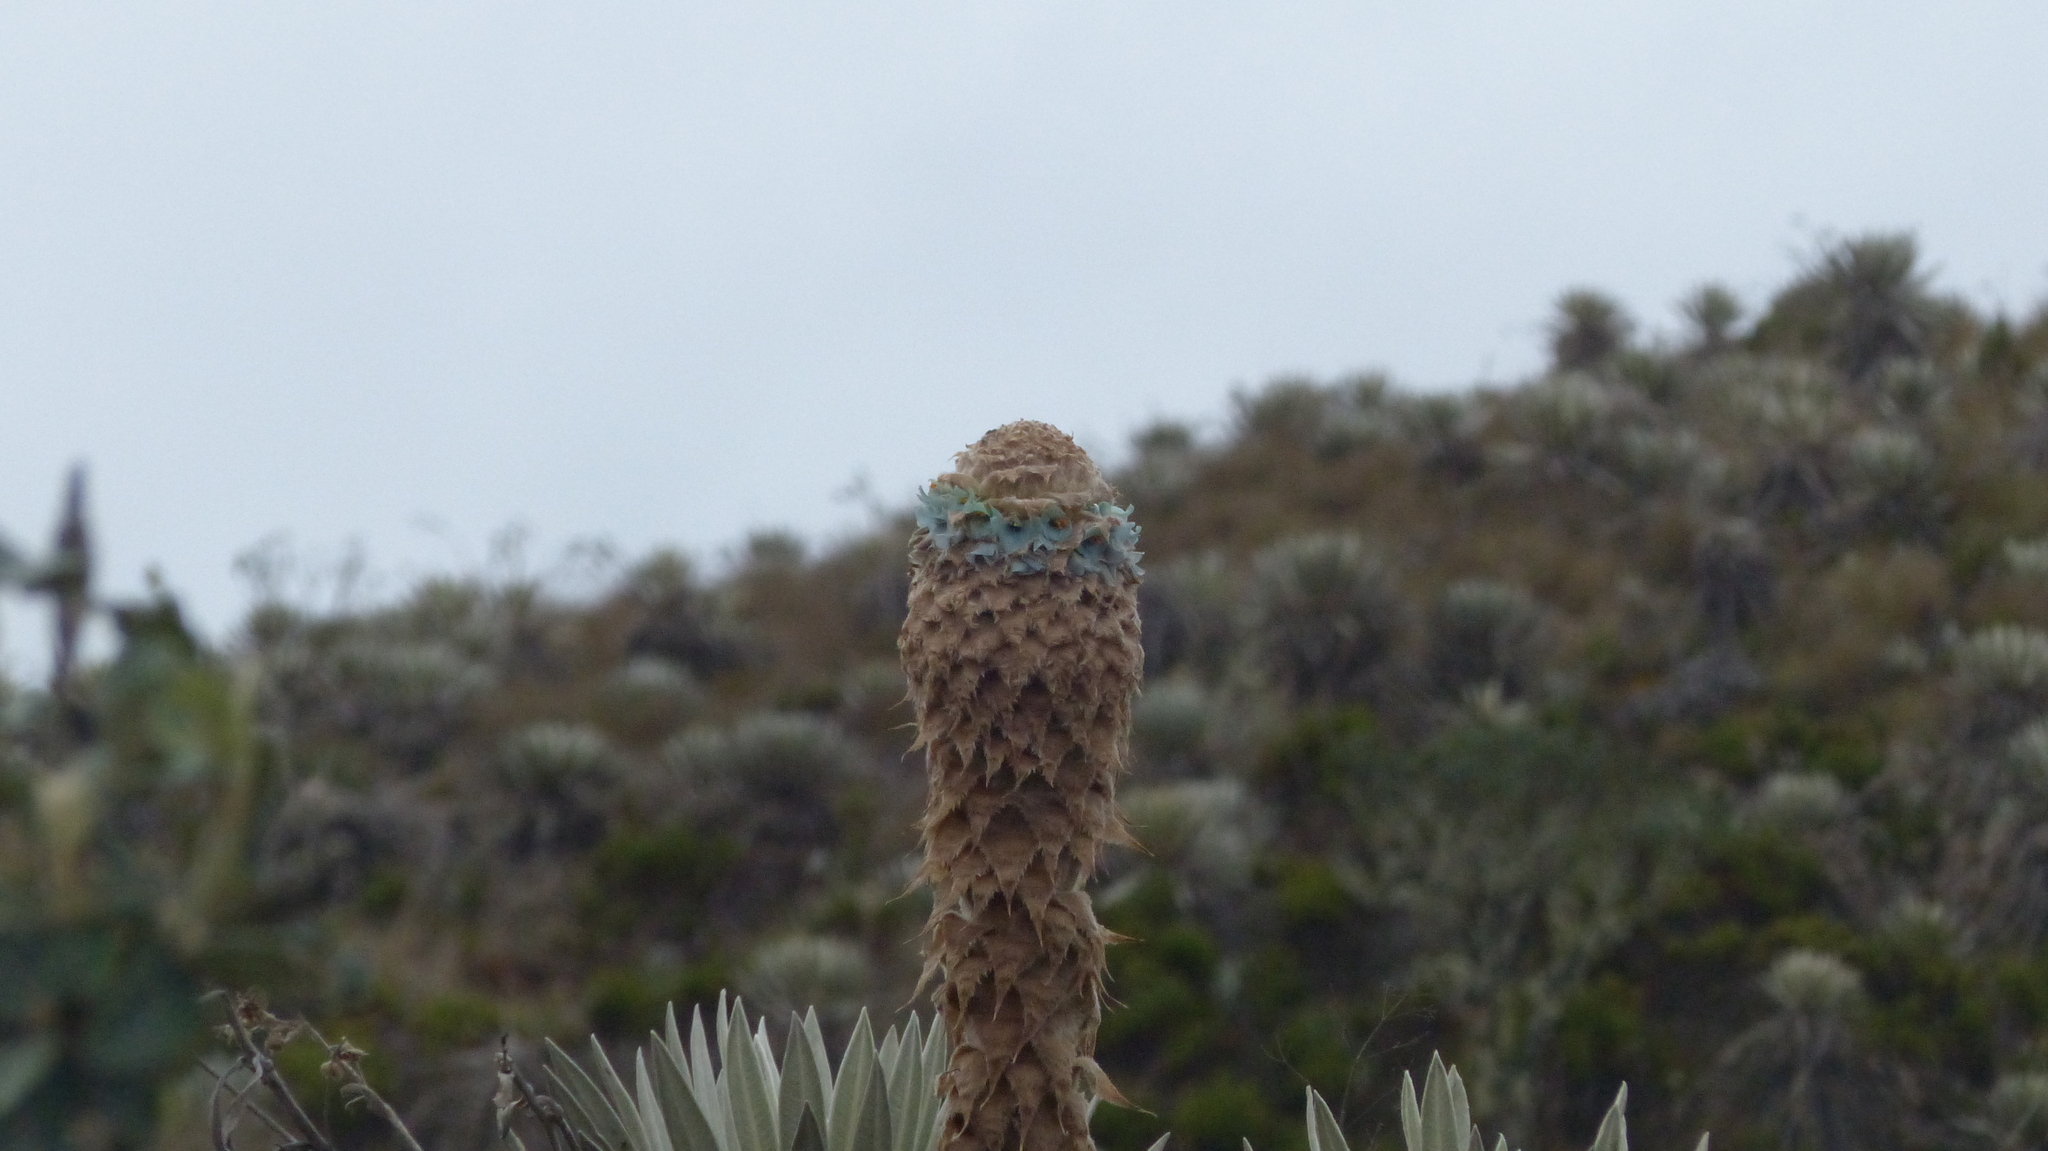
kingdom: Plantae
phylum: Tracheophyta
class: Liliopsida
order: Poales
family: Bromeliaceae
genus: Puya
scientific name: Puya trianae
